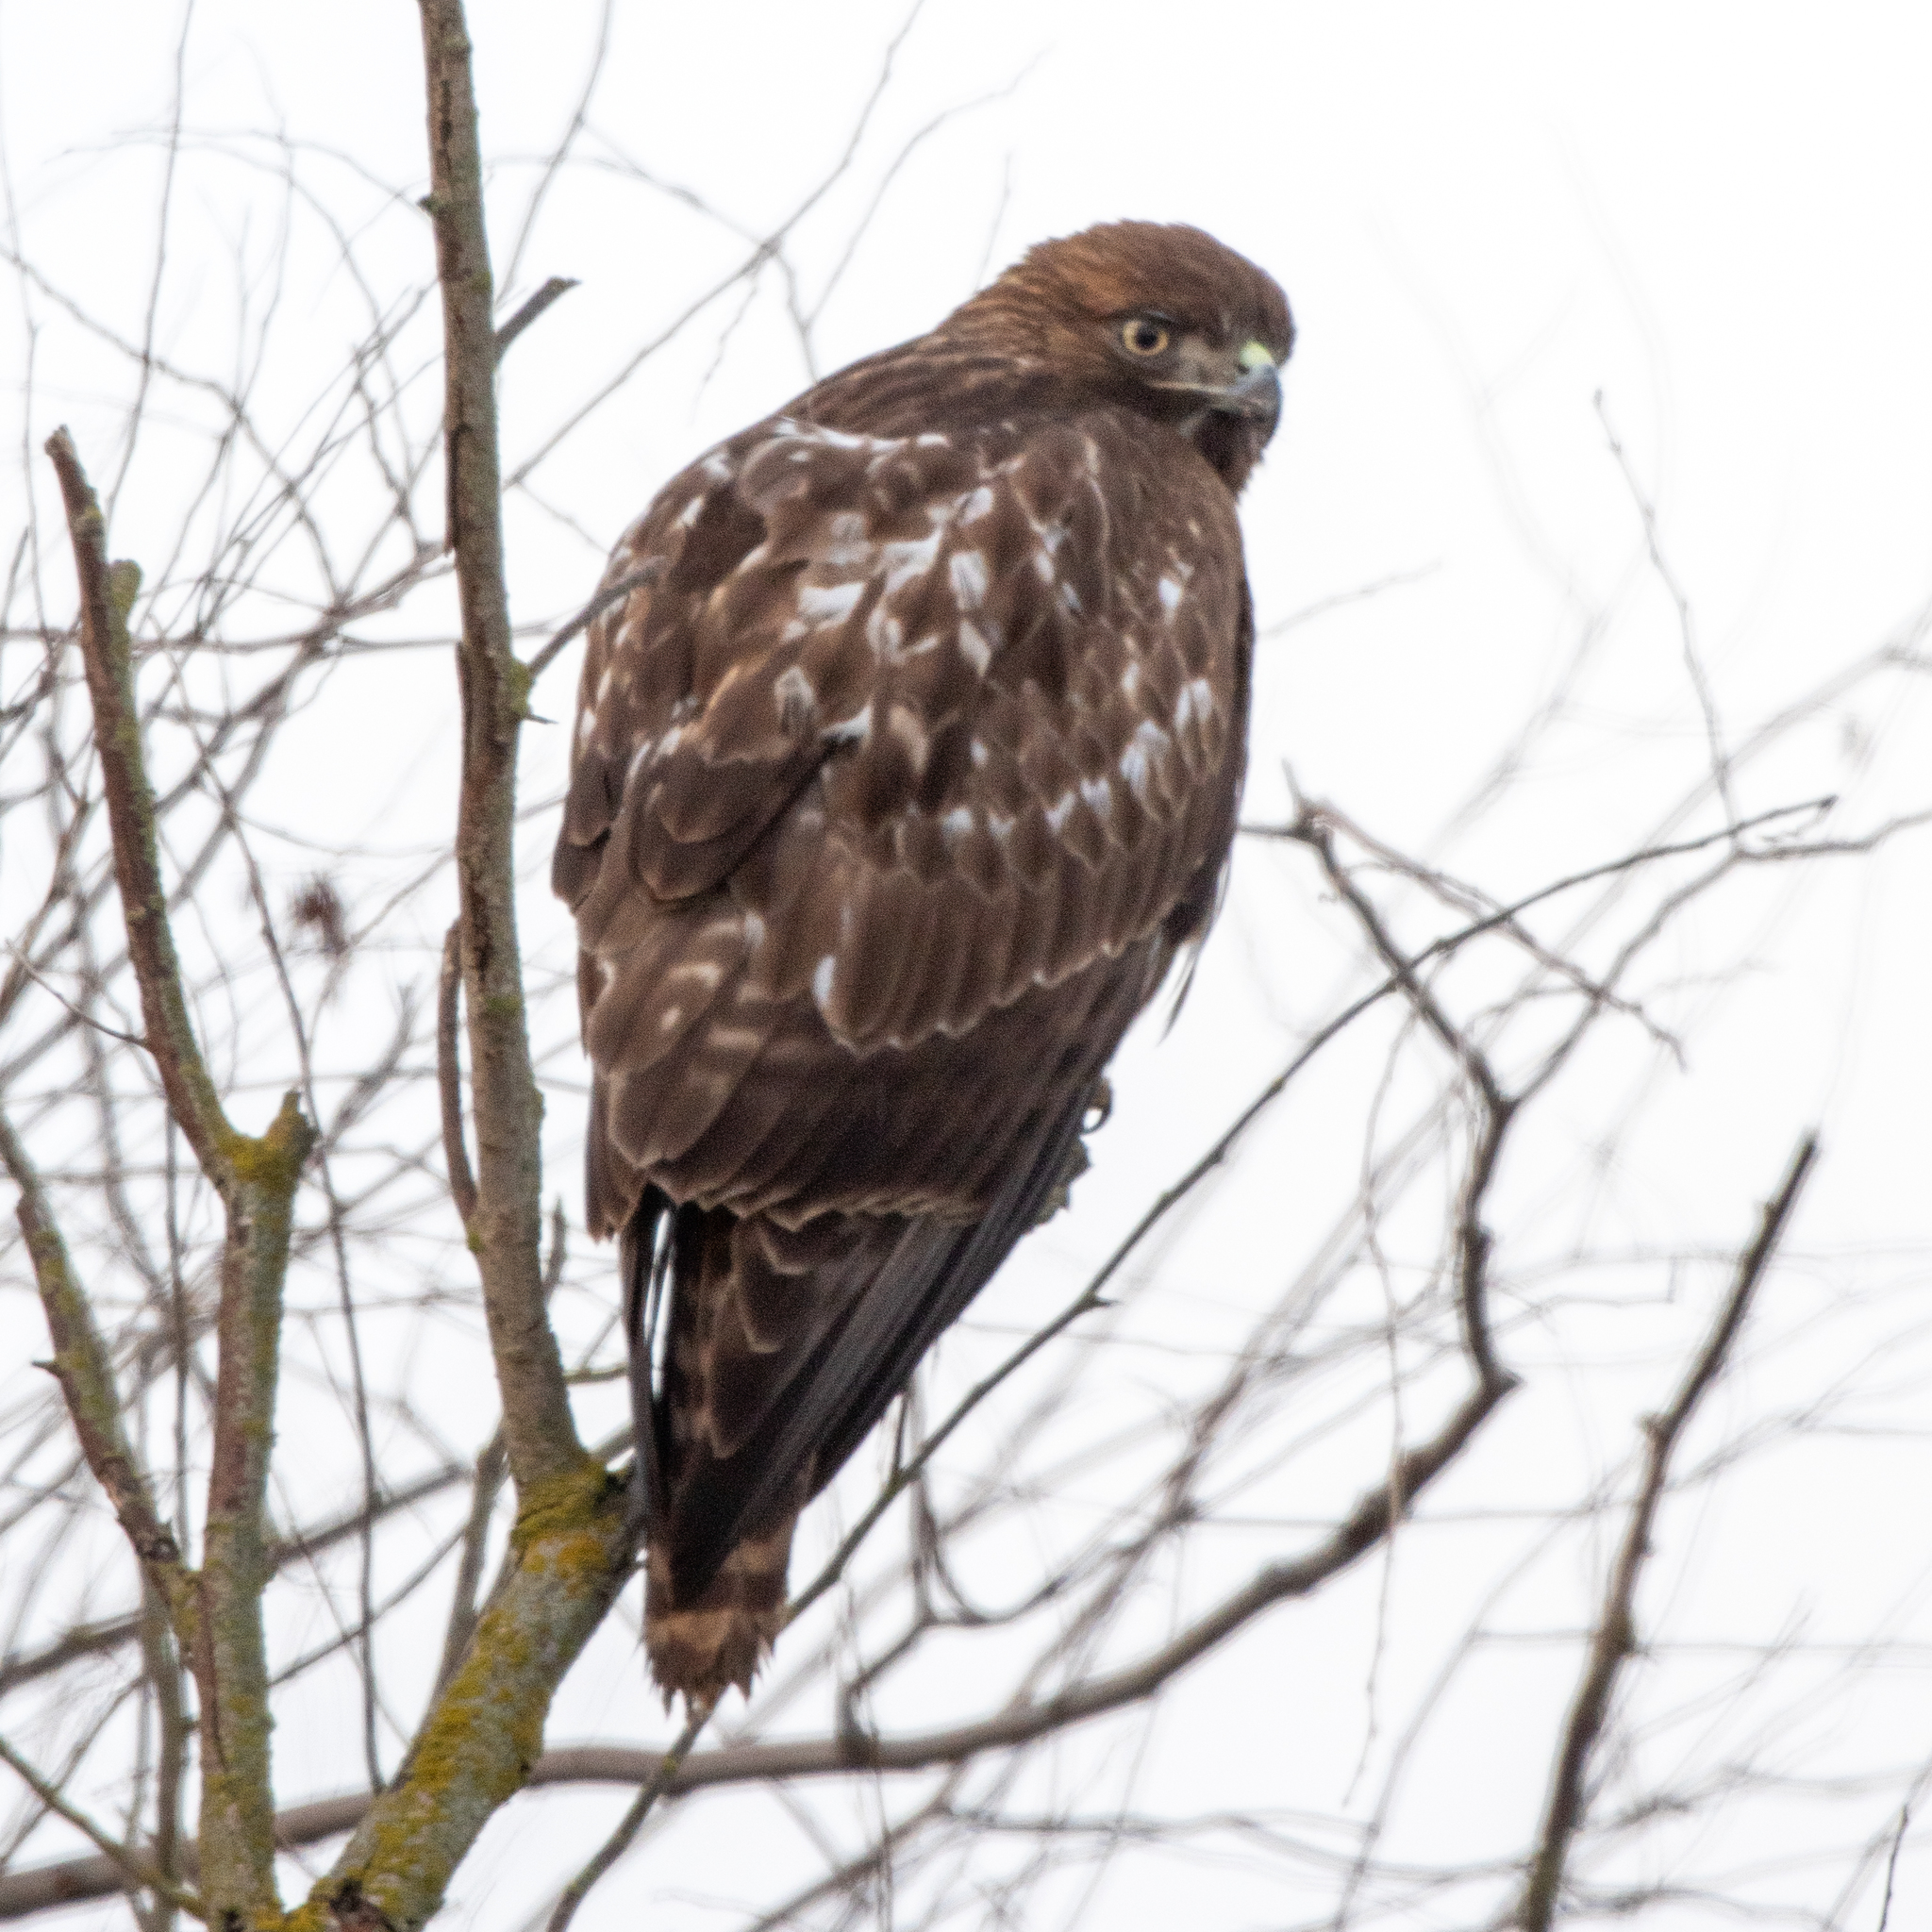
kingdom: Animalia
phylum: Chordata
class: Aves
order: Accipitriformes
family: Accipitridae
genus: Buteo
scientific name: Buteo jamaicensis
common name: Red-tailed hawk
